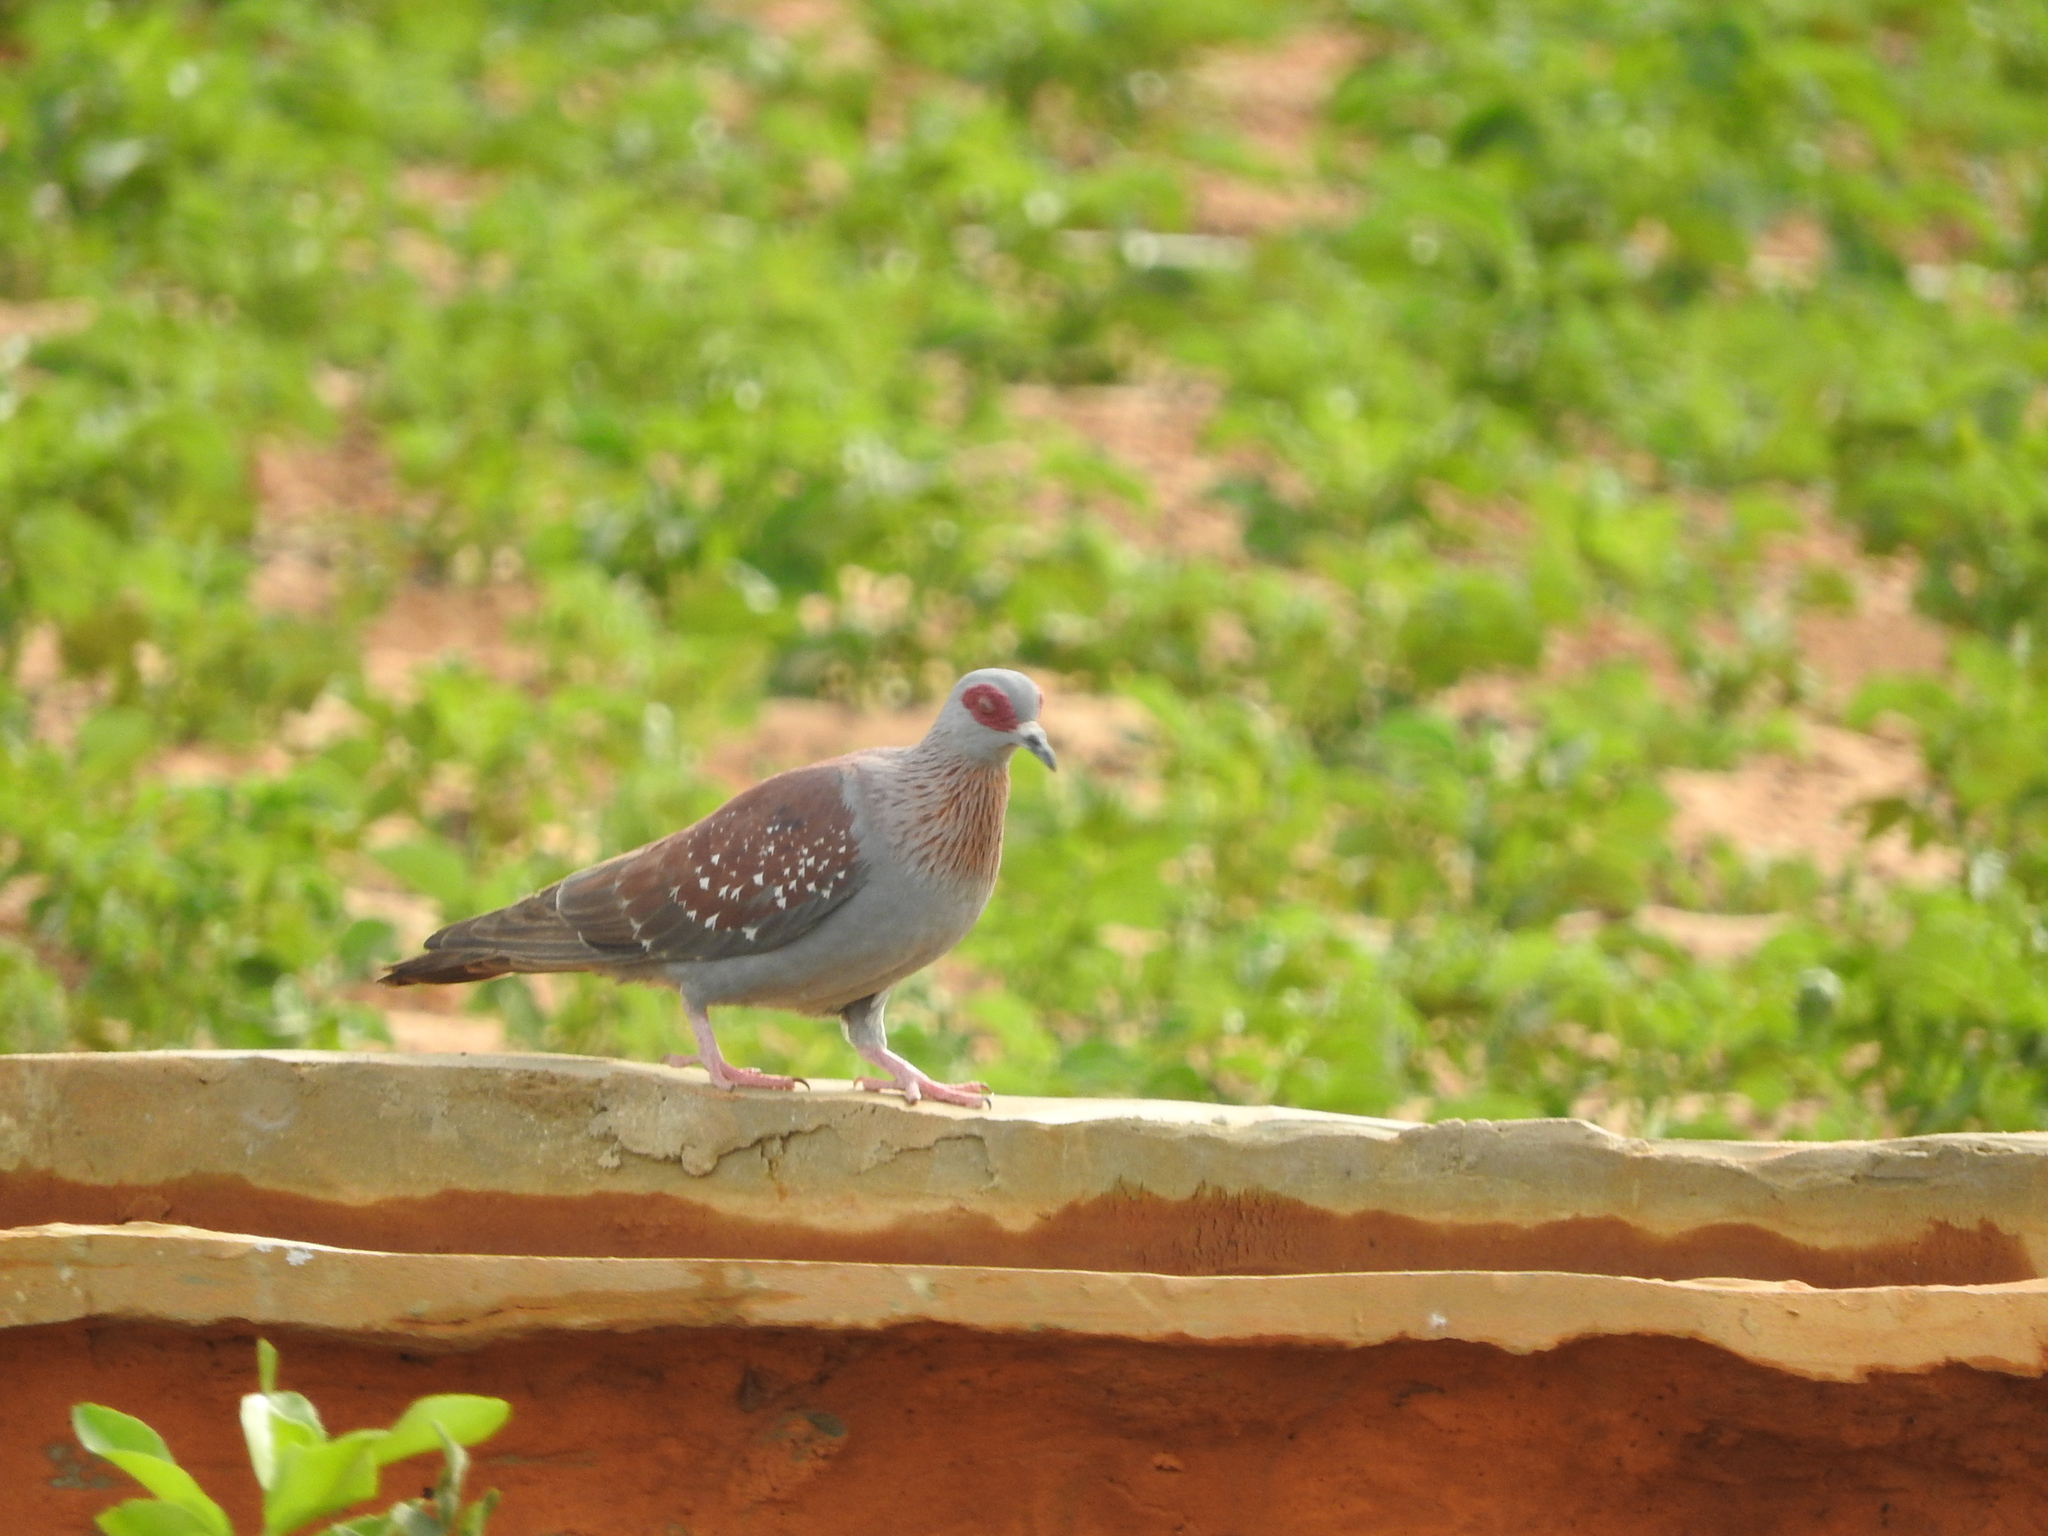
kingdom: Animalia
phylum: Chordata
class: Aves
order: Columbiformes
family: Columbidae
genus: Columba
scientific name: Columba guinea
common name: Speckled pigeon
